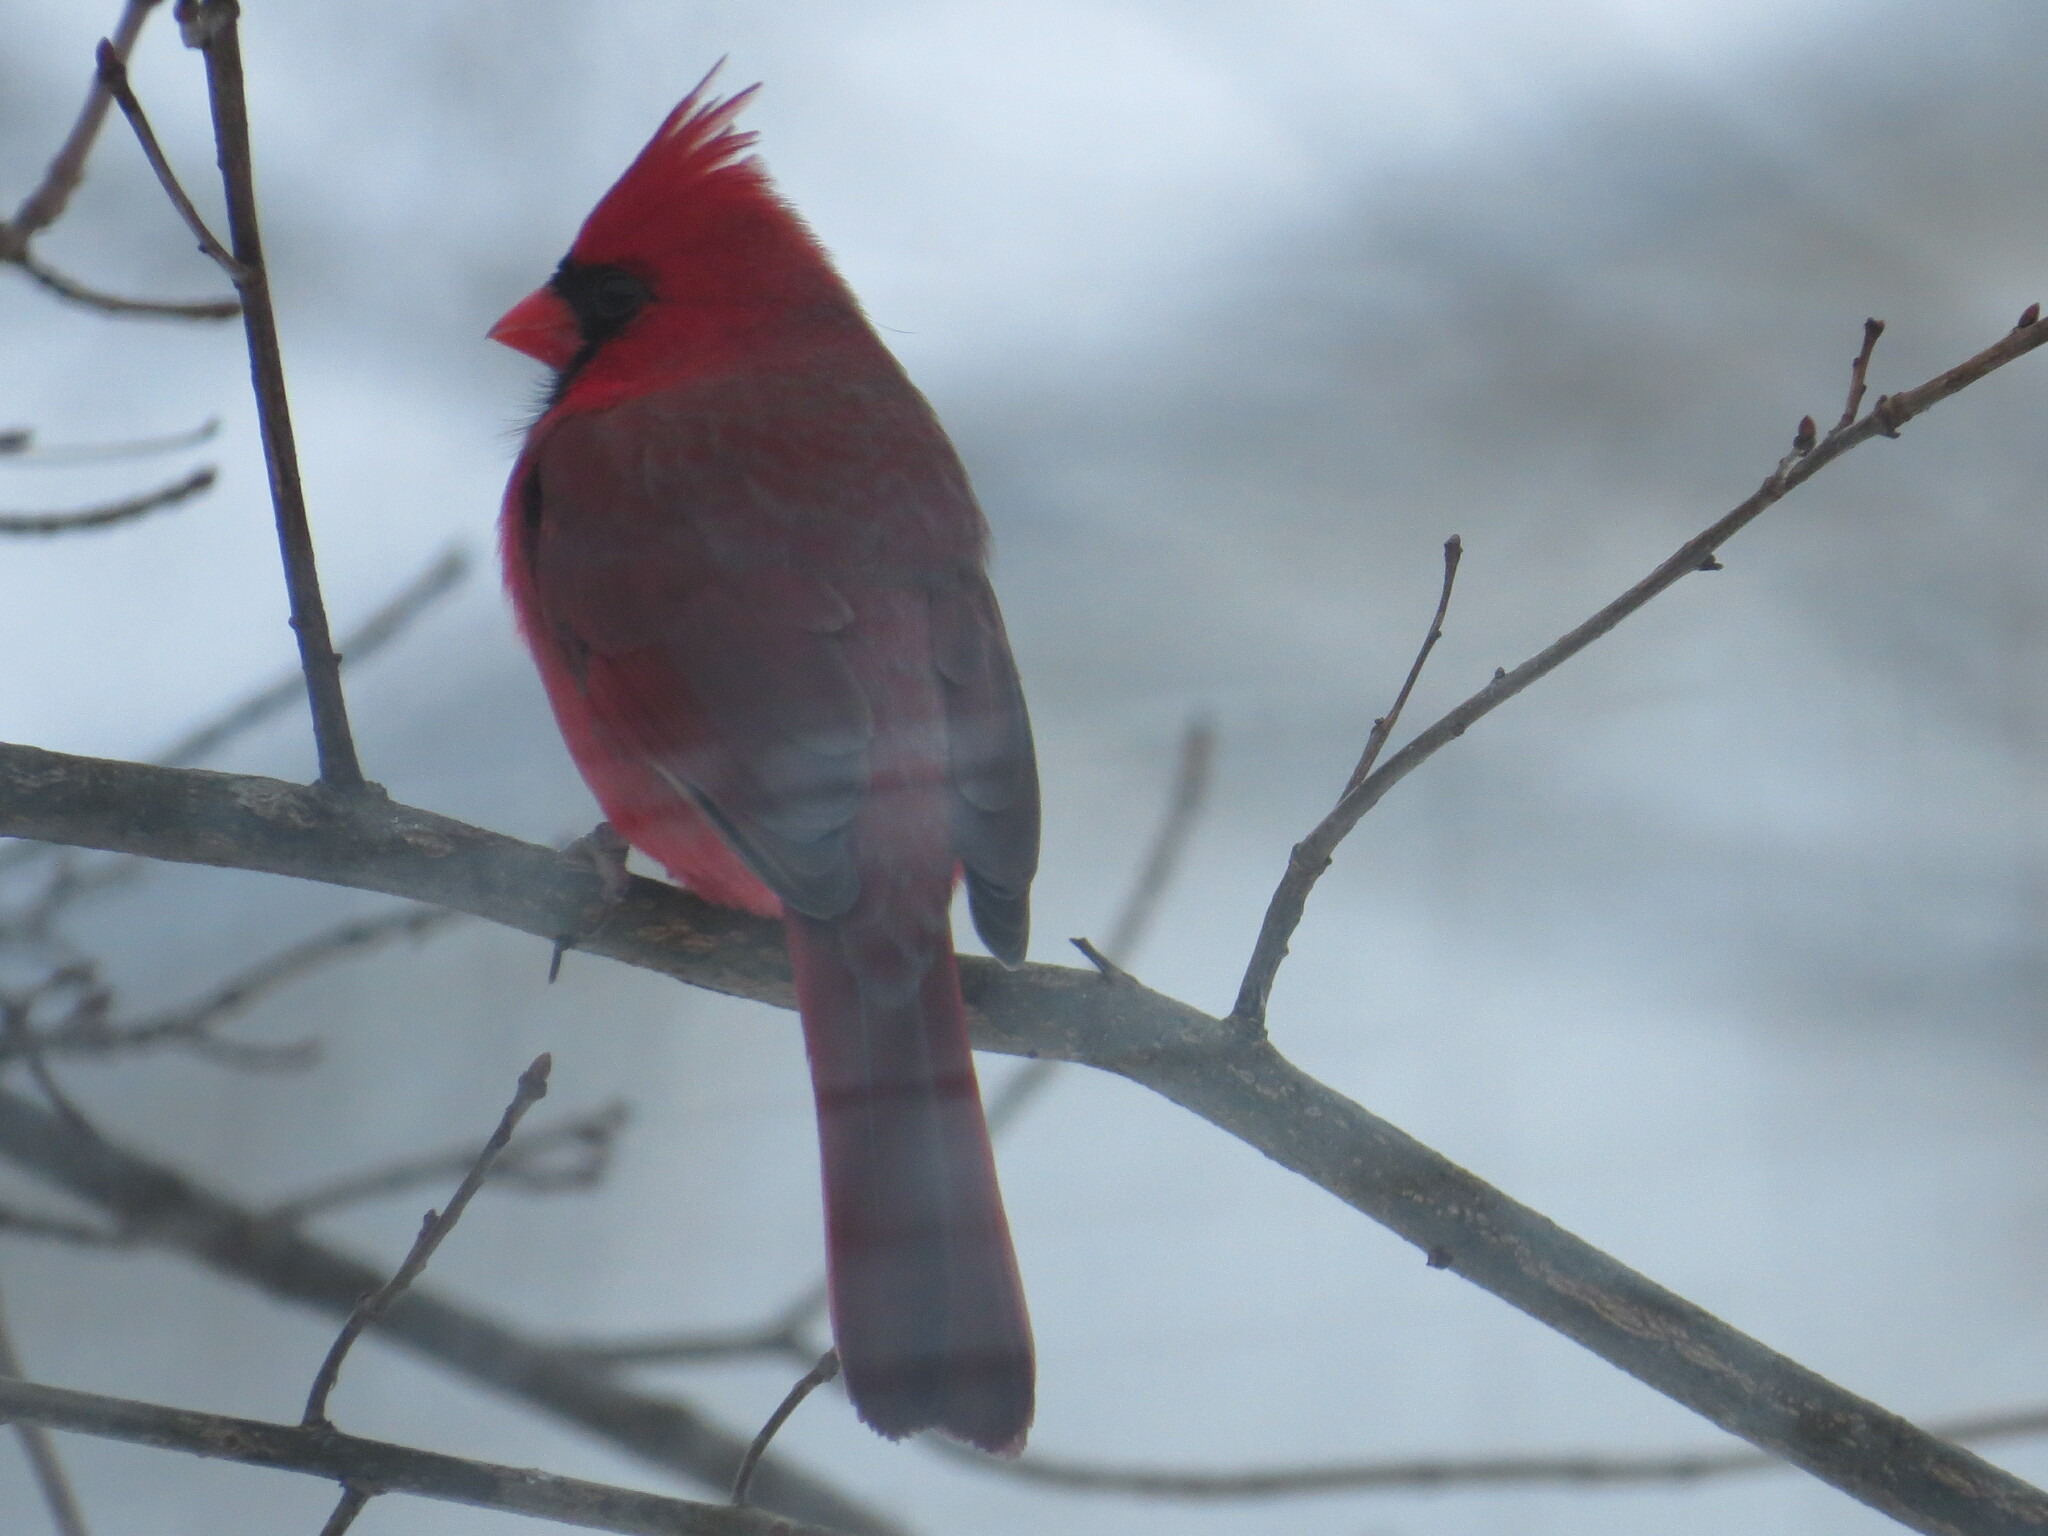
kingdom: Animalia
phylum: Chordata
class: Aves
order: Passeriformes
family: Cardinalidae
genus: Cardinalis
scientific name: Cardinalis cardinalis
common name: Northern cardinal
